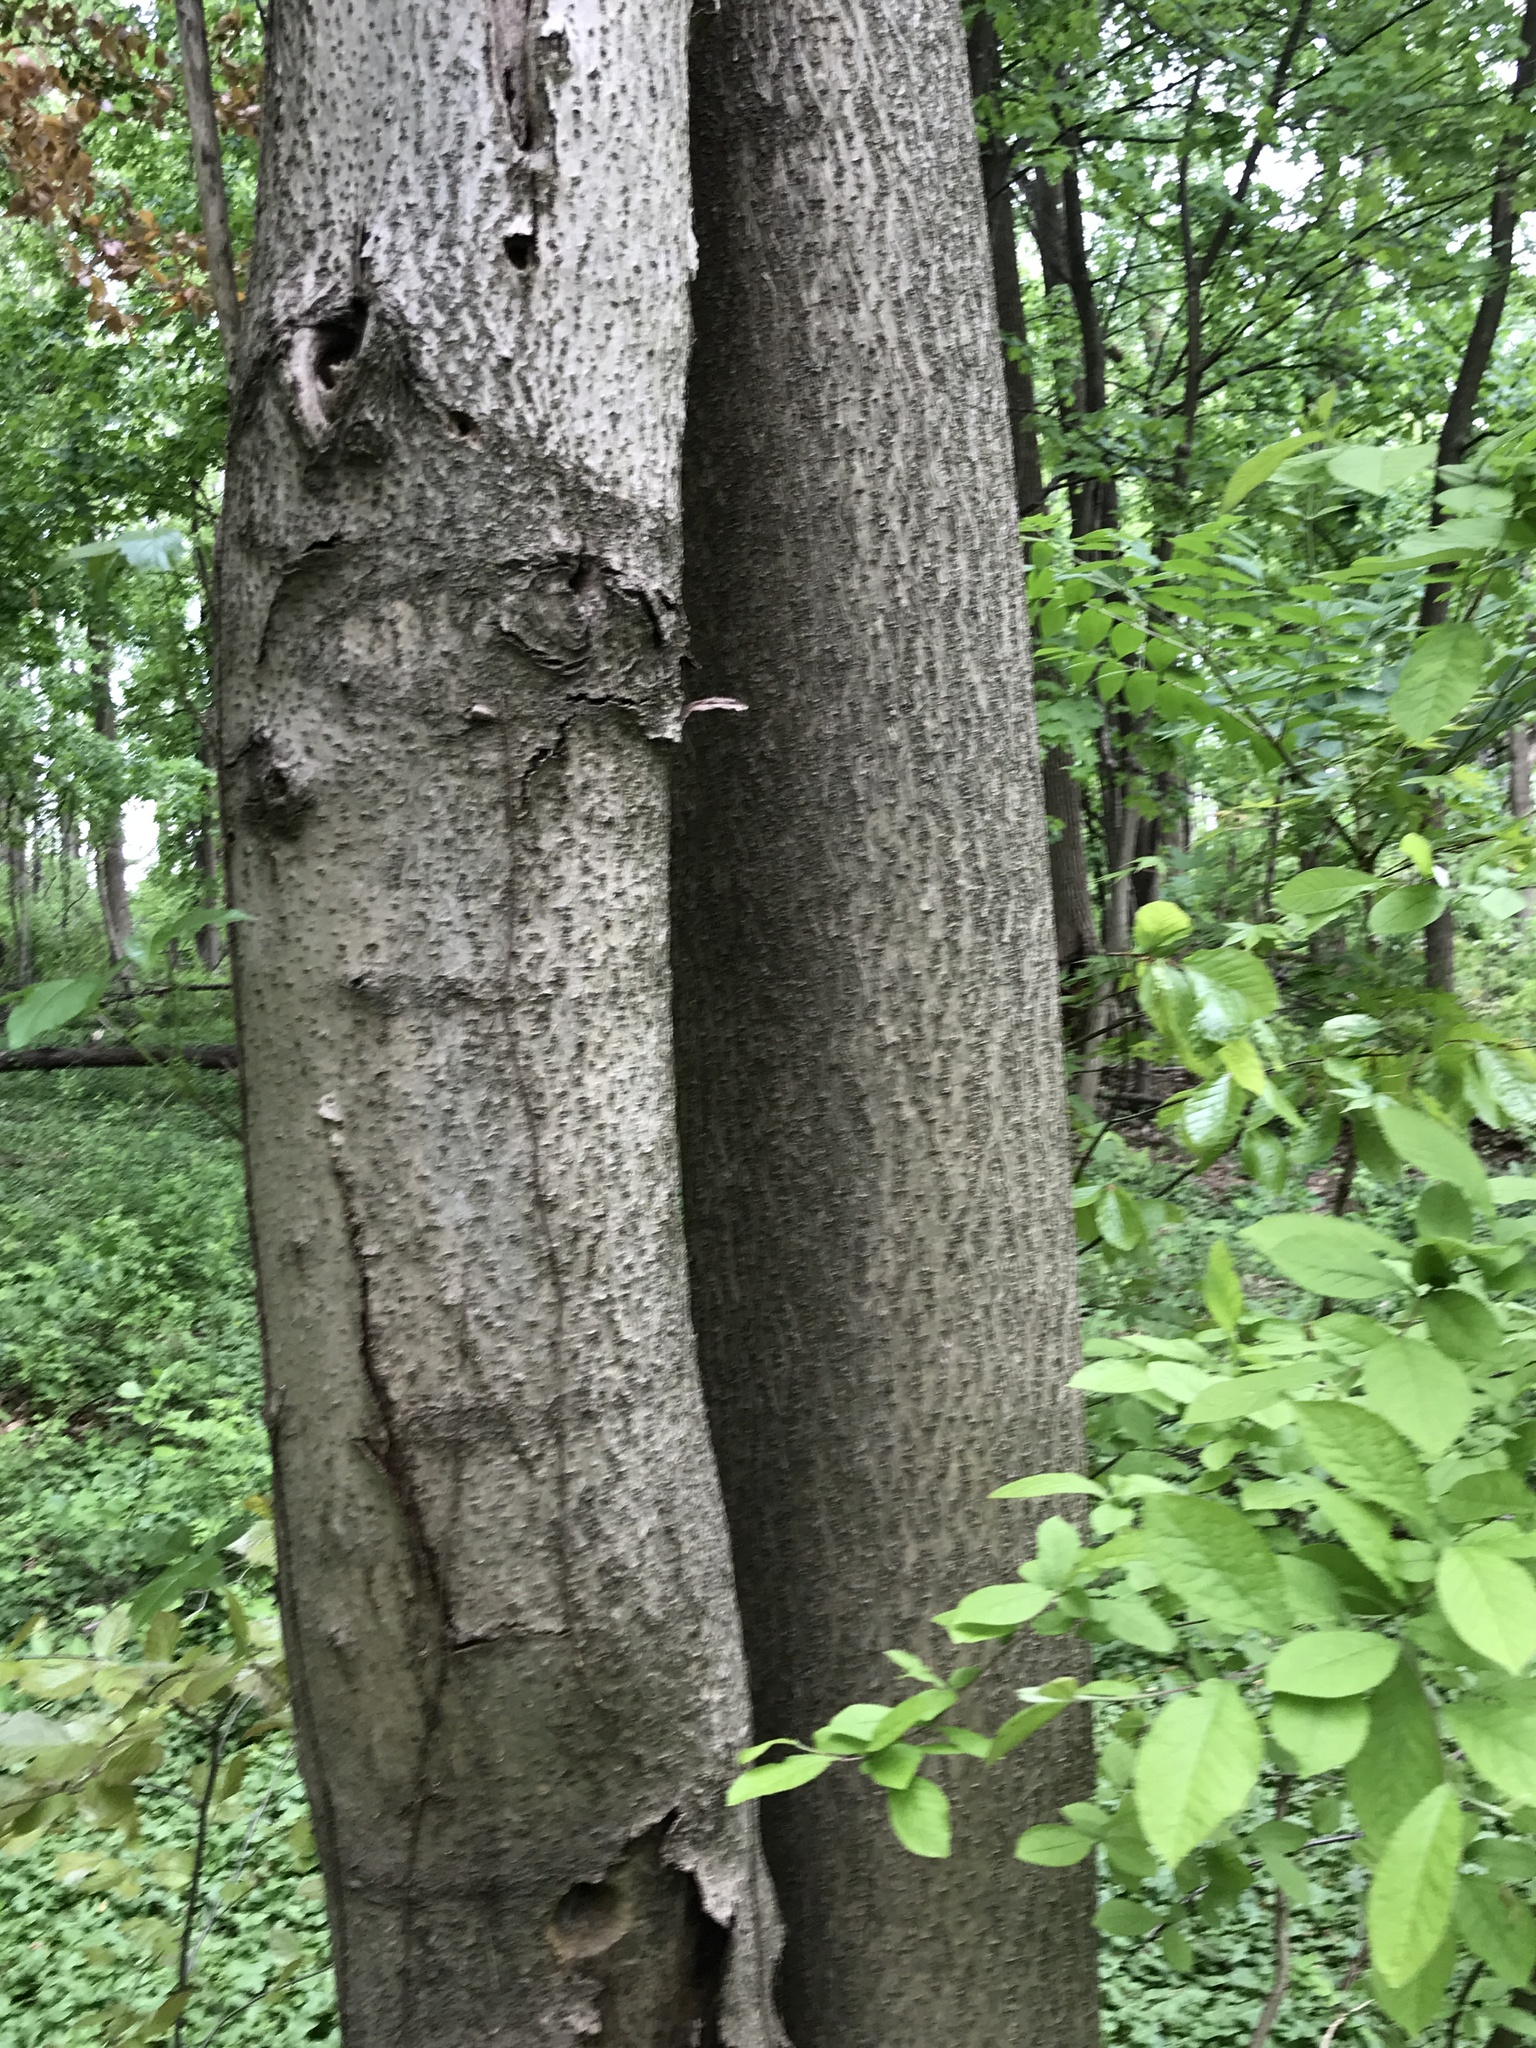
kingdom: Plantae
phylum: Tracheophyta
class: Magnoliopsida
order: Lamiales
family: Paulowniaceae
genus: Paulownia
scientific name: Paulownia tomentosa
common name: Foxglove-tree
